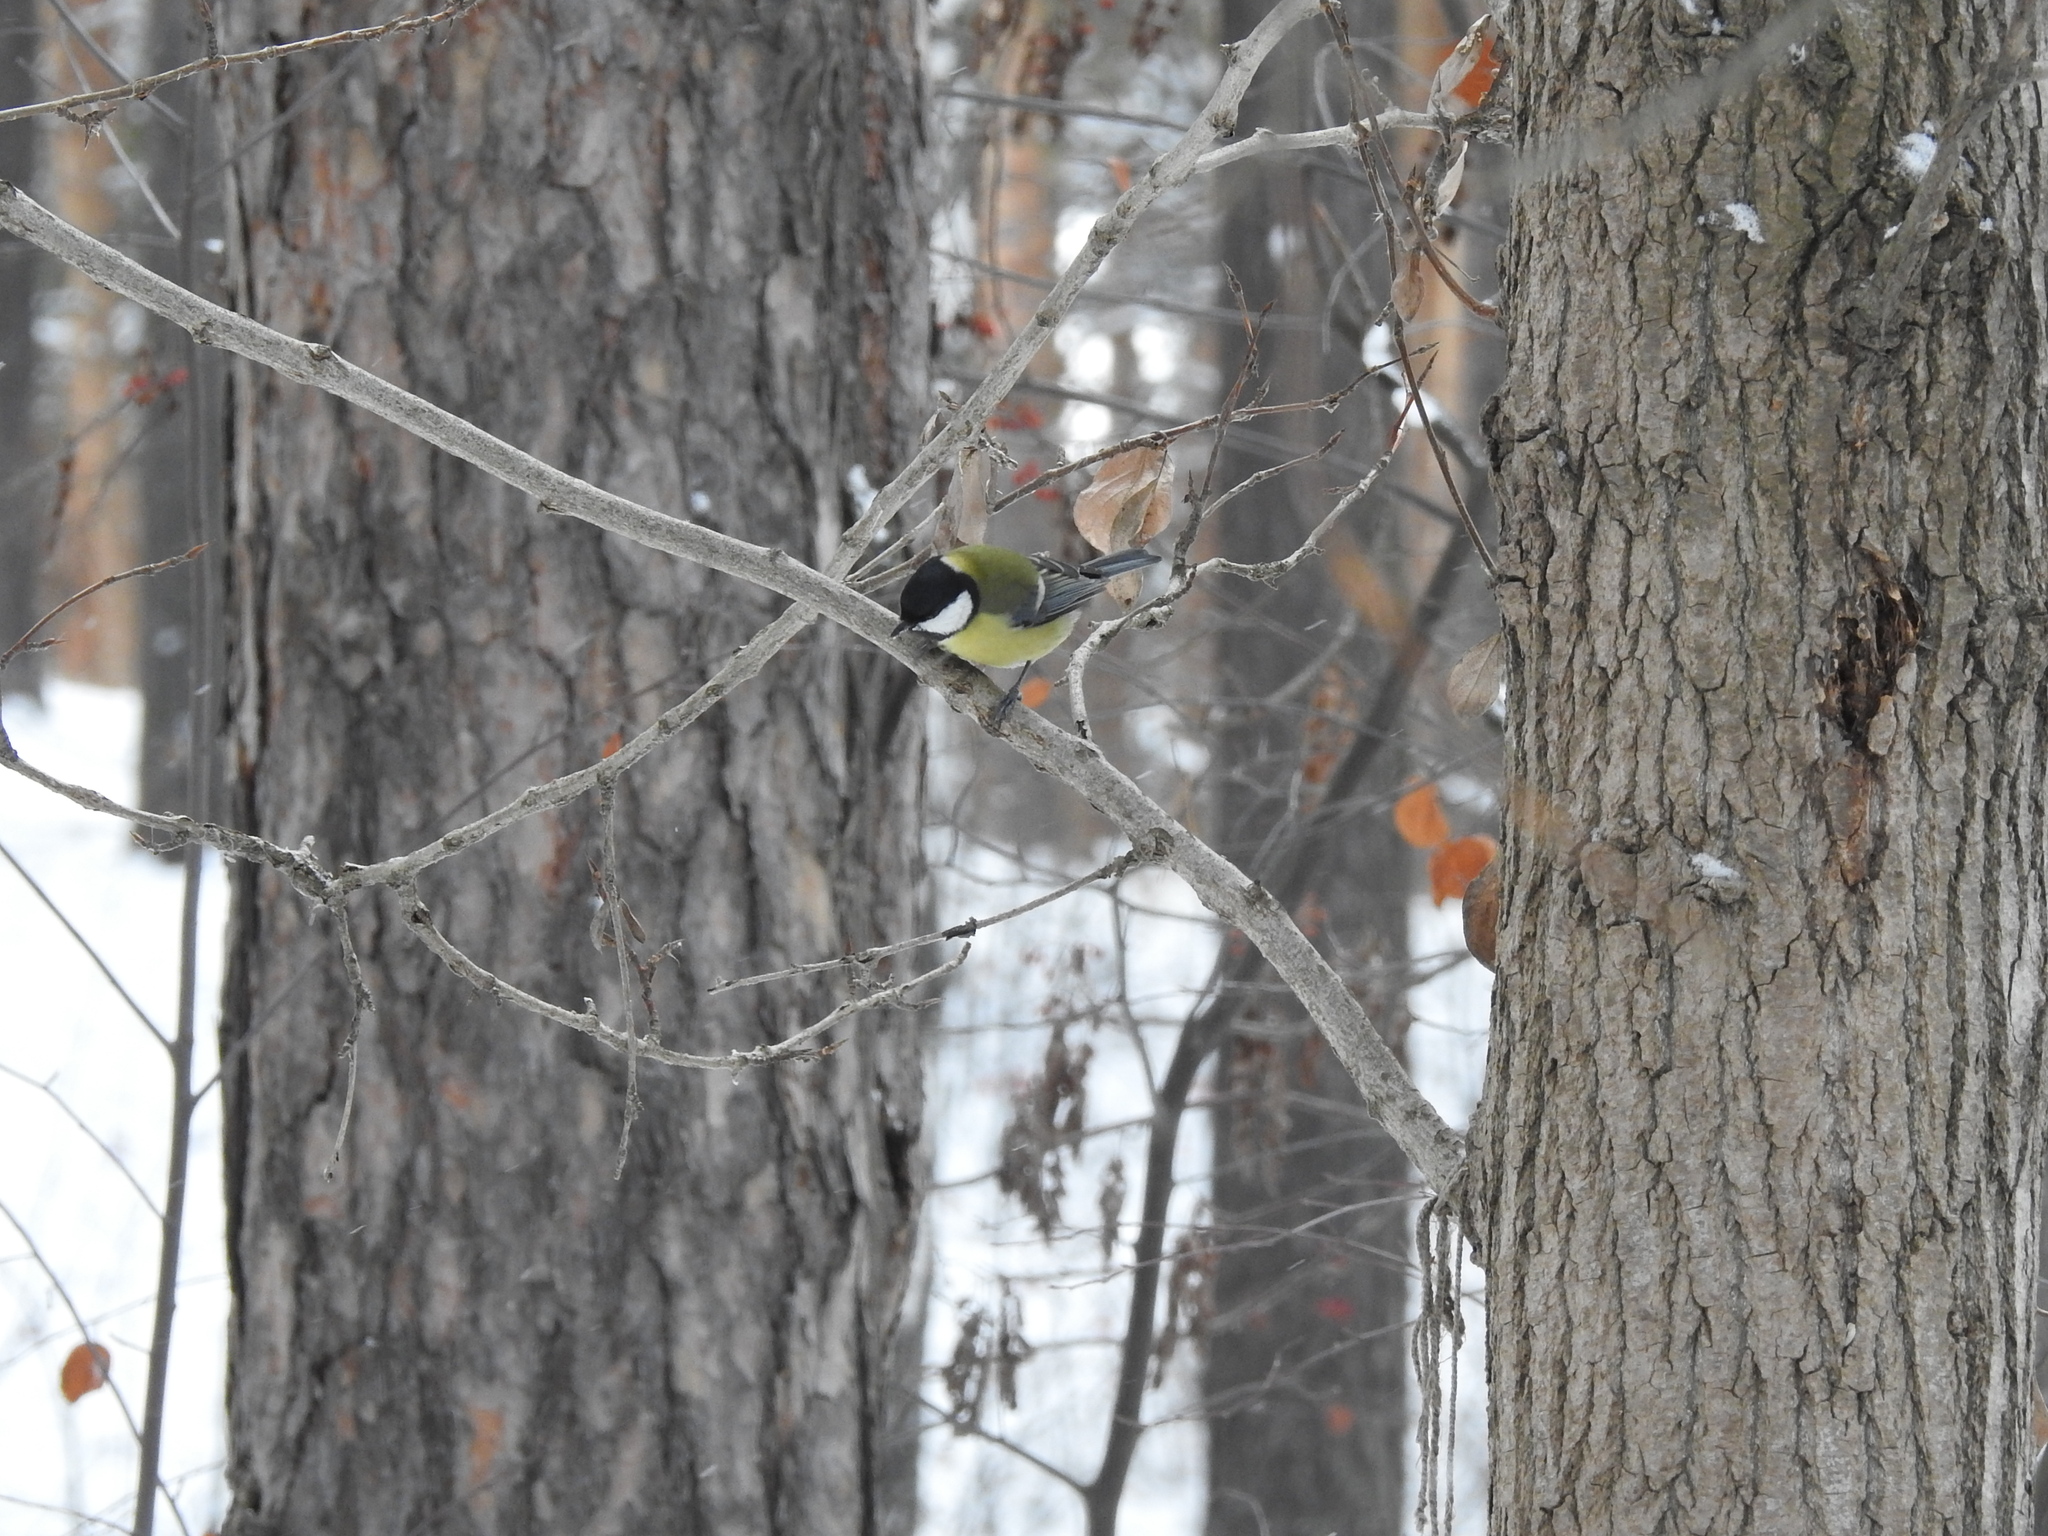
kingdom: Animalia
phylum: Chordata
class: Aves
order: Passeriformes
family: Paridae
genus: Parus
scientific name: Parus major
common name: Great tit
